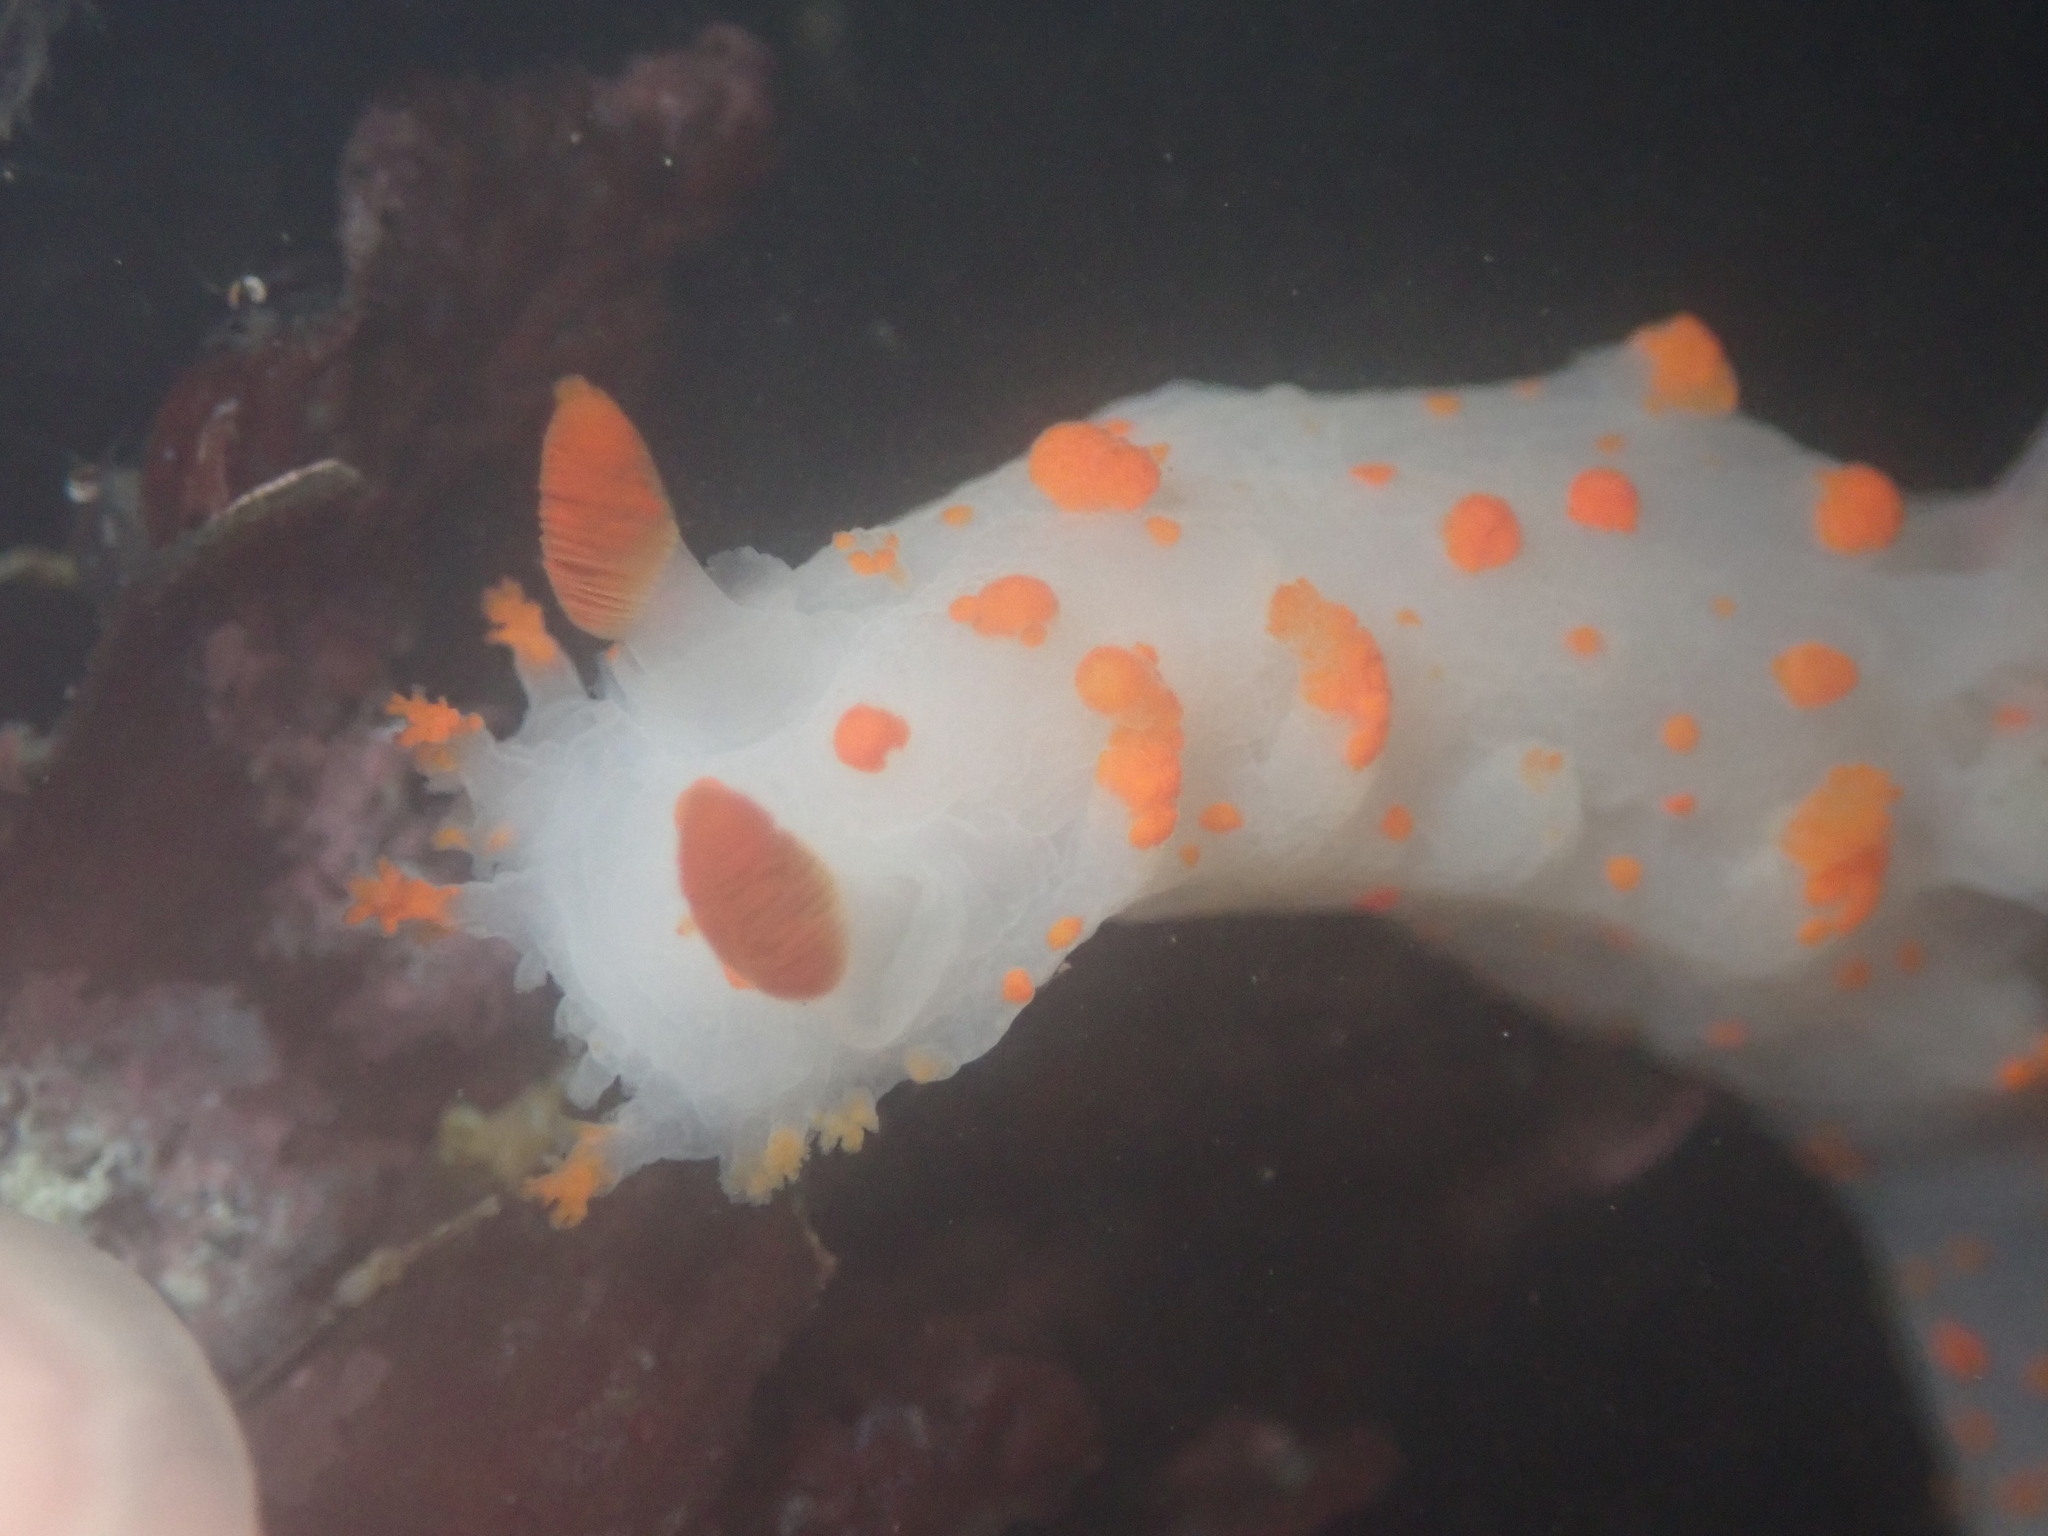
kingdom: Animalia
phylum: Mollusca
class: Gastropoda
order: Nudibranchia
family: Polyceridae
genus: Triopha
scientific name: Triopha catalinae
